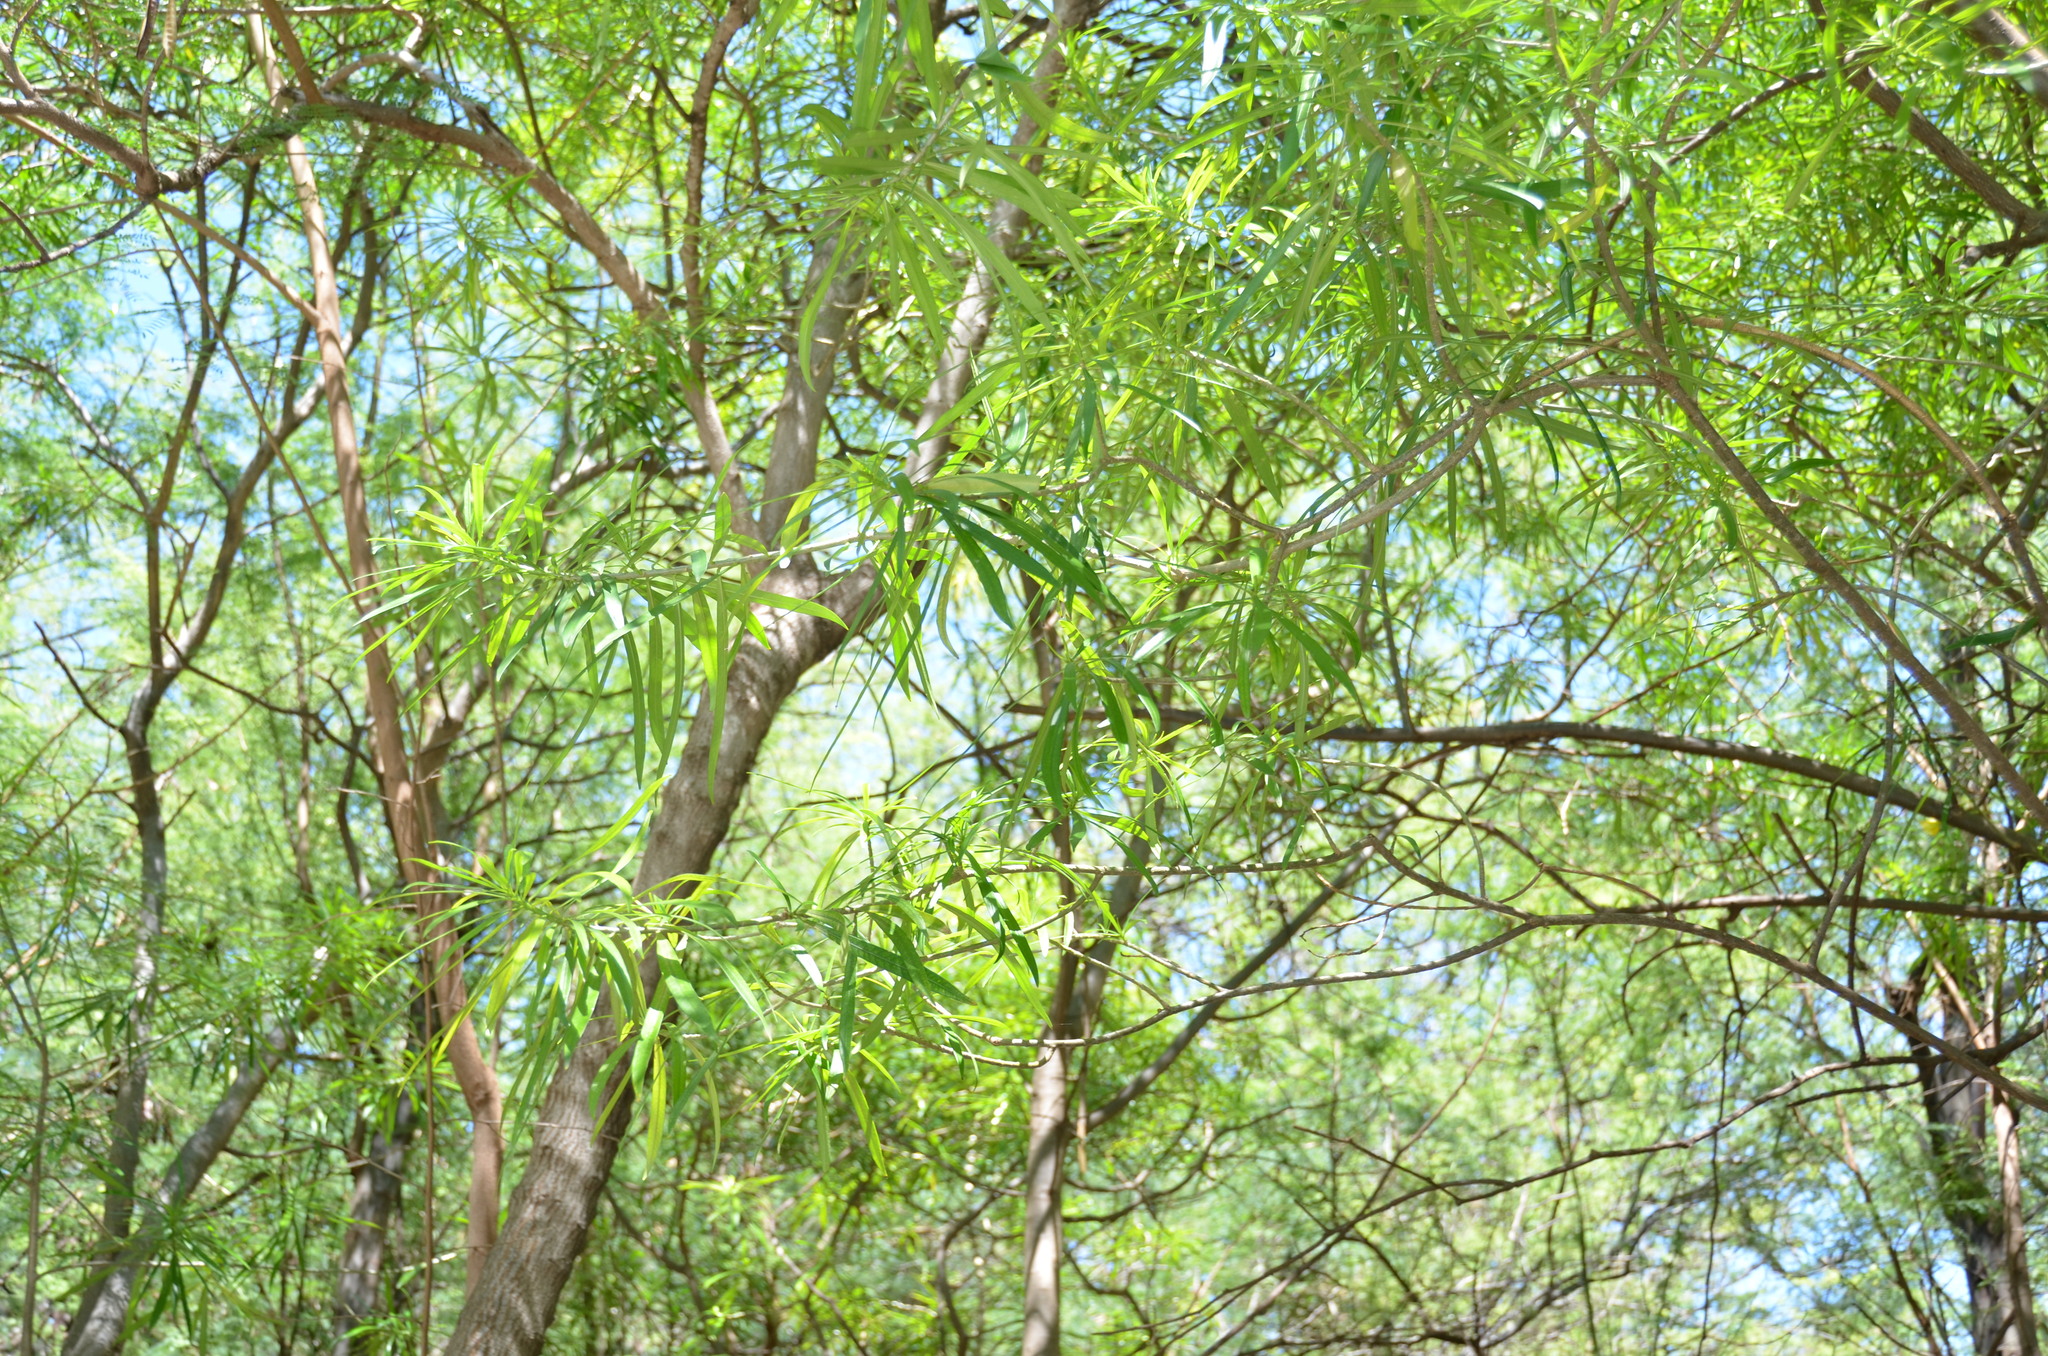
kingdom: Plantae
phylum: Tracheophyta
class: Magnoliopsida
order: Gentianales
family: Apocynaceae
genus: Cascabela
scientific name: Cascabela thevetia
